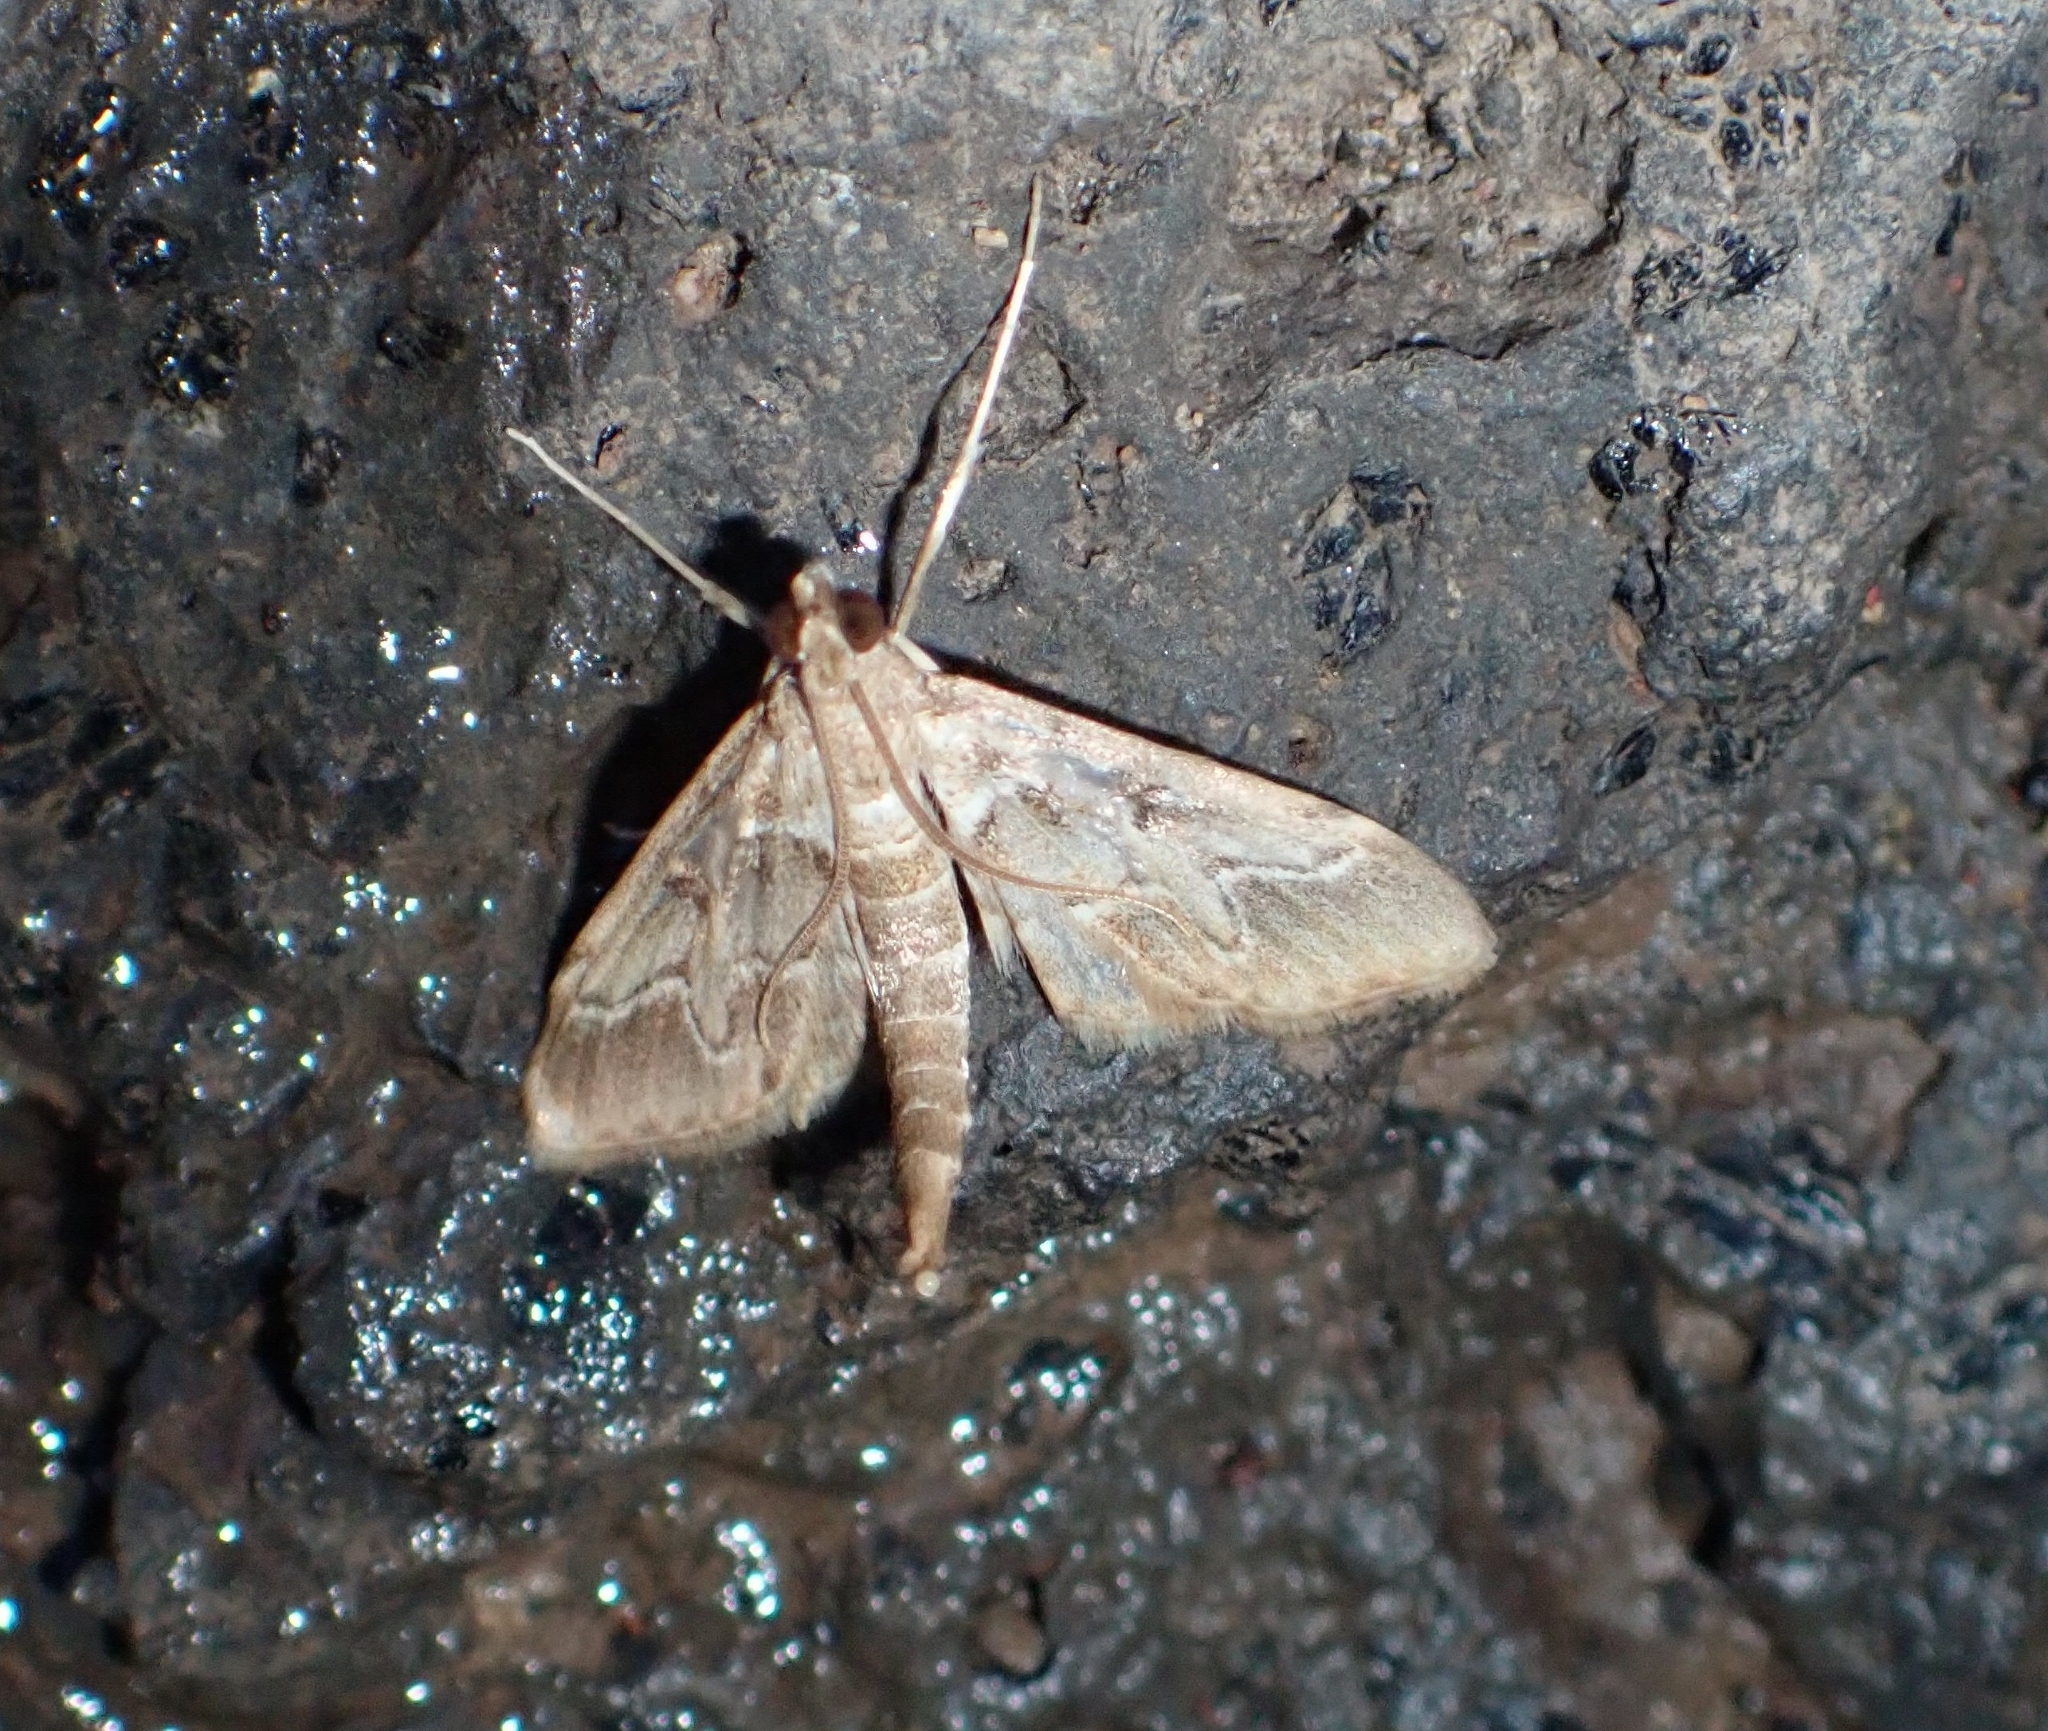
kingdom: Animalia
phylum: Arthropoda
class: Insecta
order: Lepidoptera
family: Crambidae
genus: Duponchelia
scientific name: Duponchelia fovealis
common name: Crambid moth
